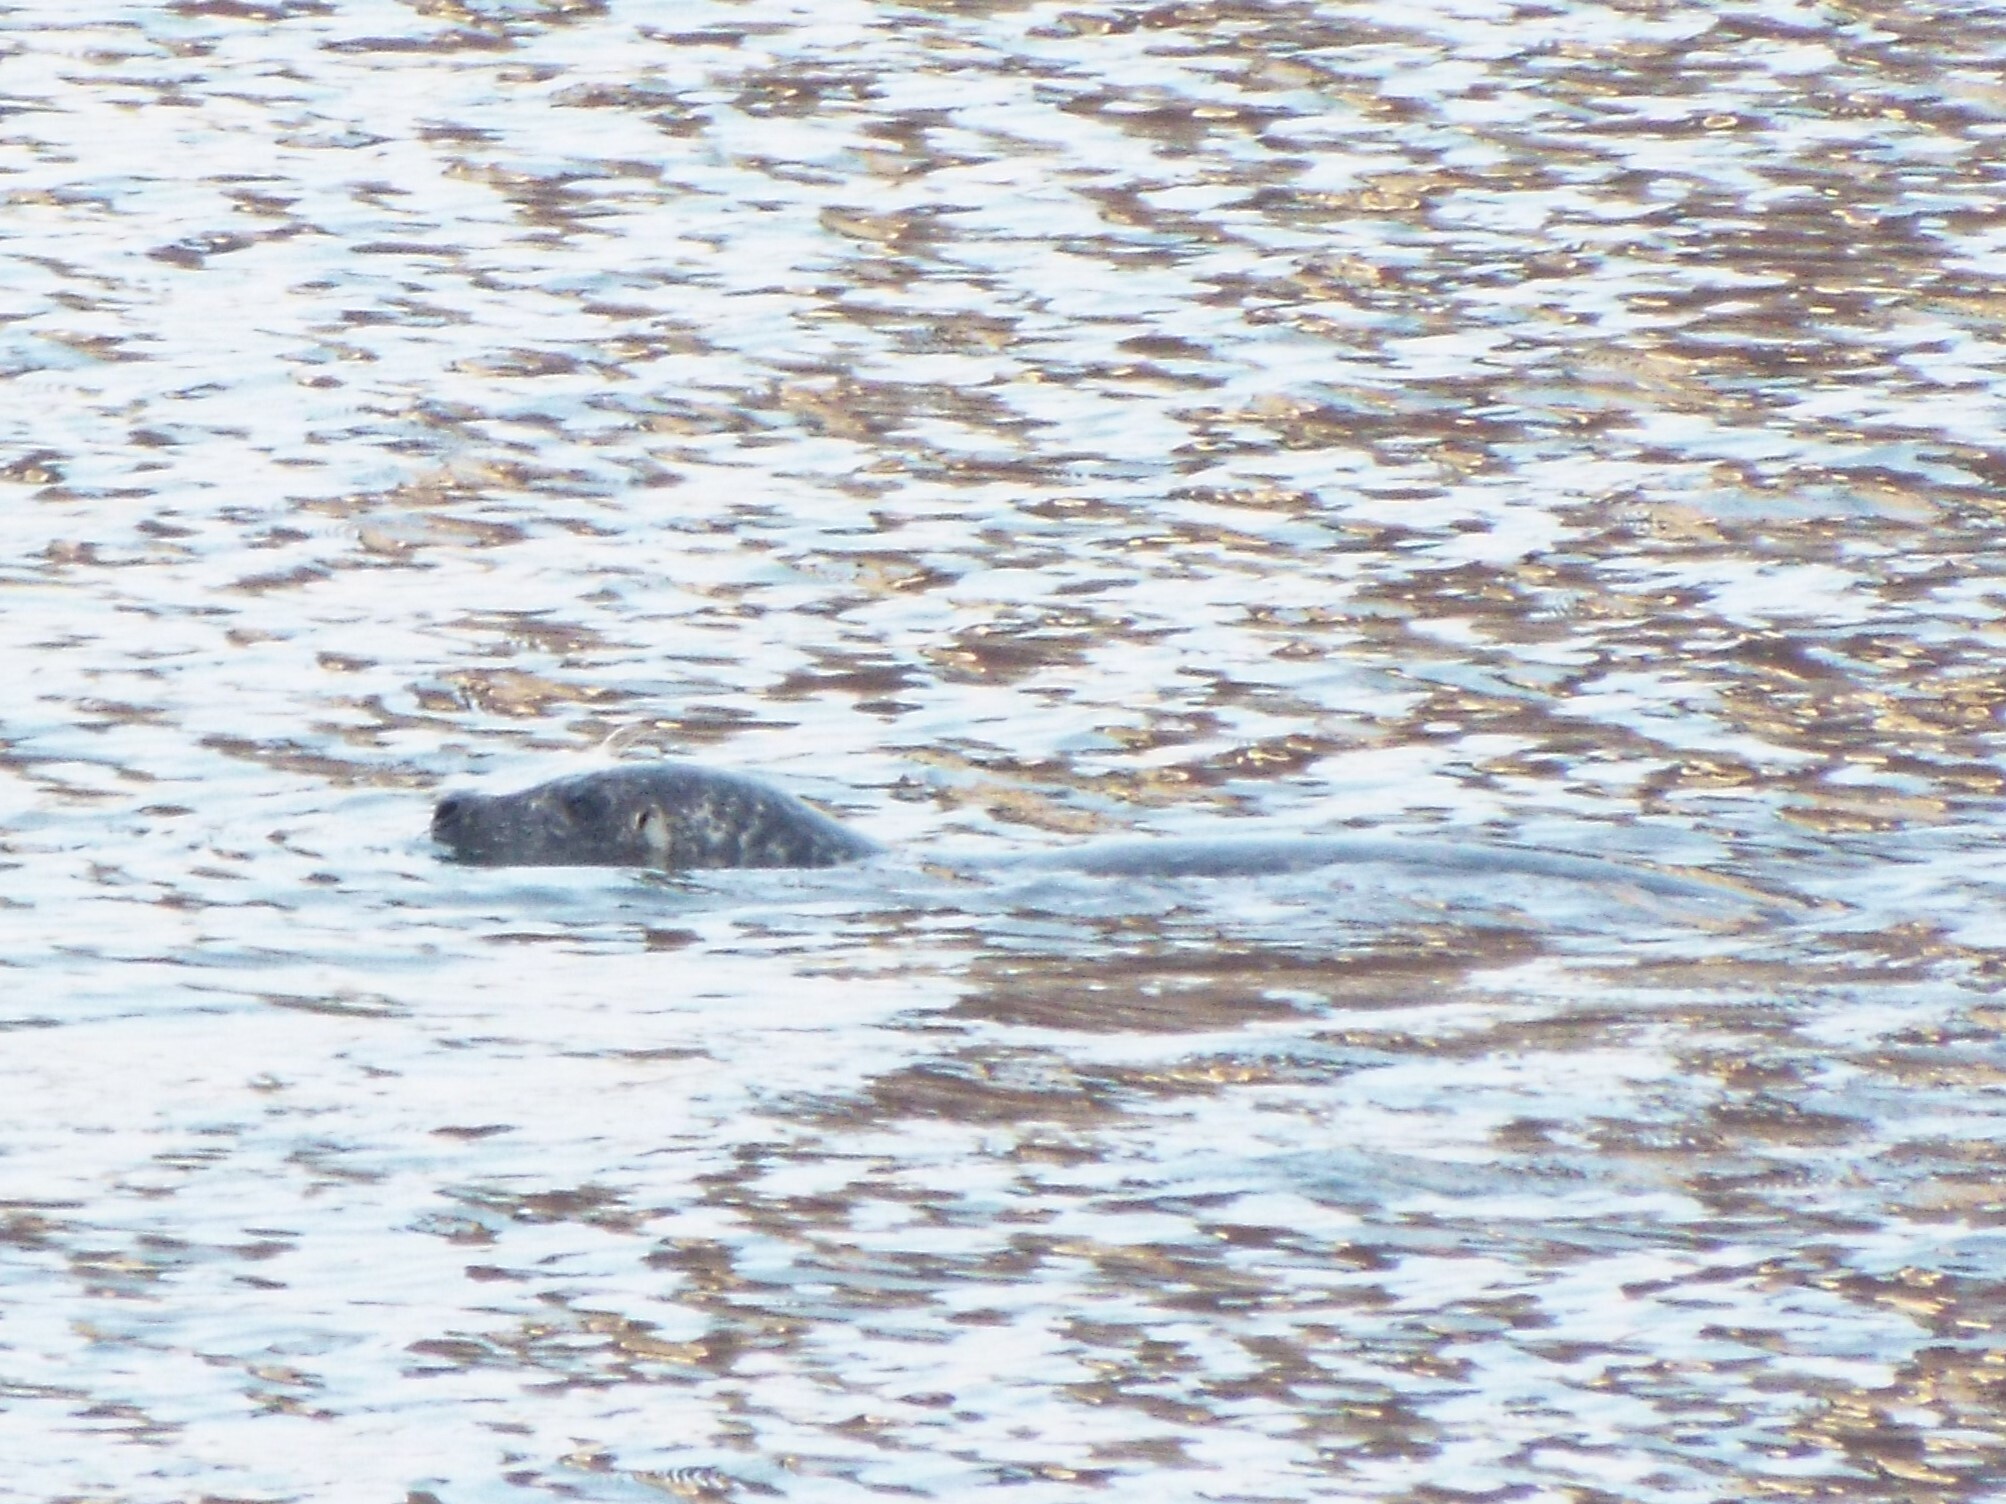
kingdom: Animalia
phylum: Chordata
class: Mammalia
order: Carnivora
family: Phocidae
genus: Phoca
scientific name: Phoca vitulina
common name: Harbor seal
